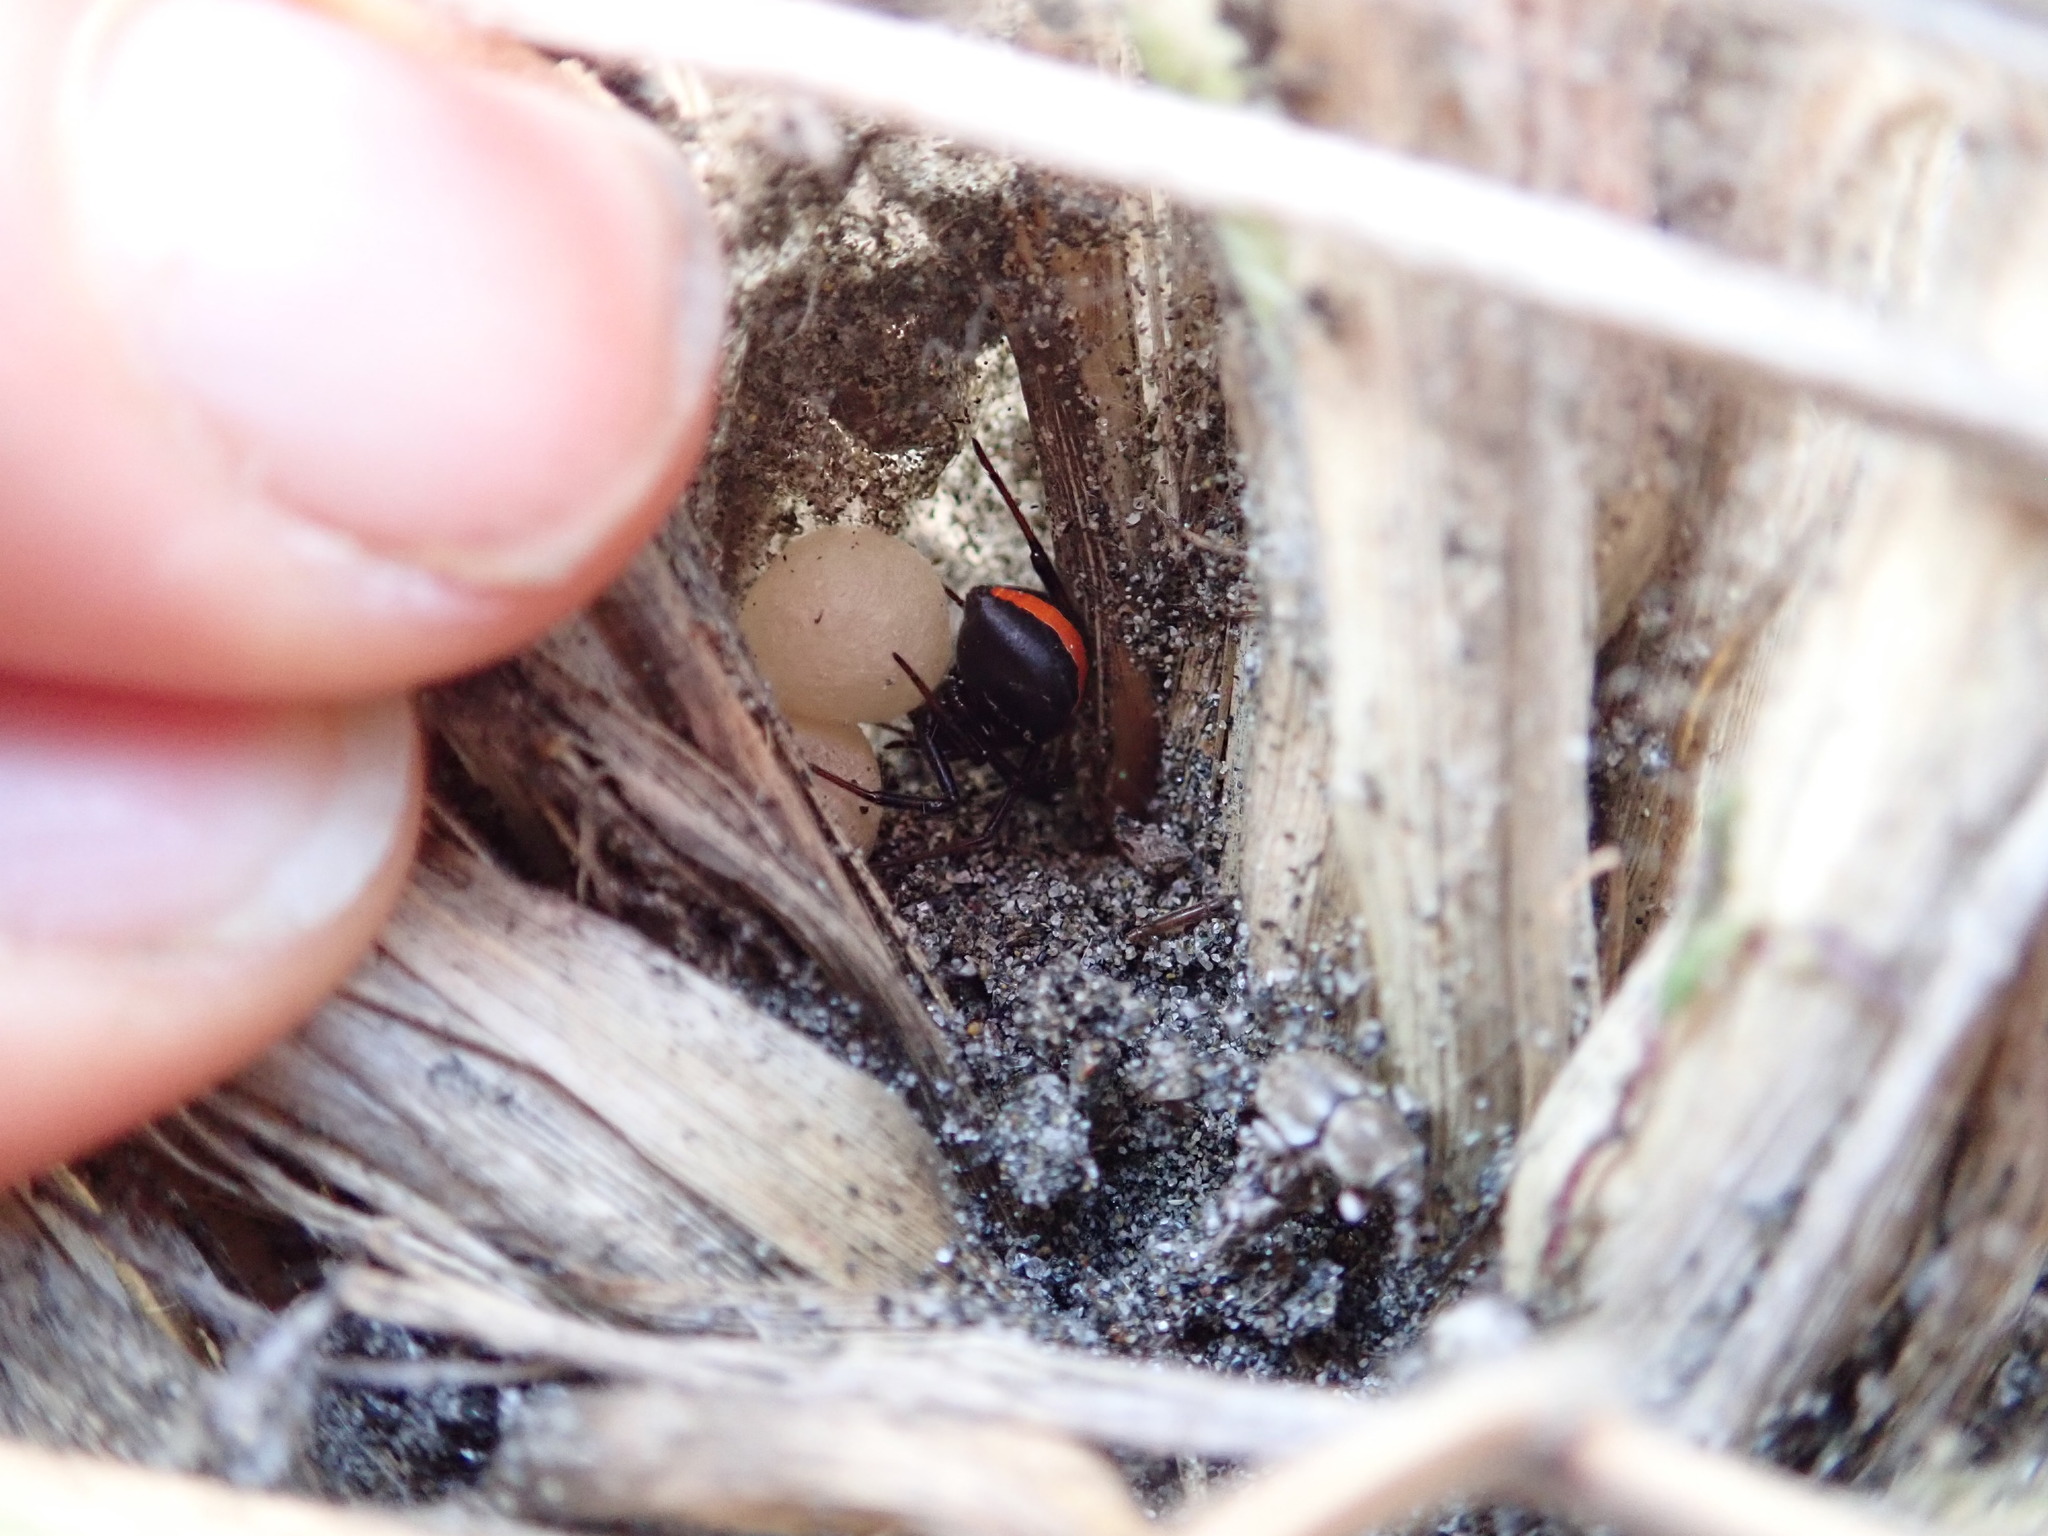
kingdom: Animalia
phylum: Arthropoda
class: Arachnida
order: Araneae
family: Theridiidae
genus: Latrodectus
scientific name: Latrodectus katipo
